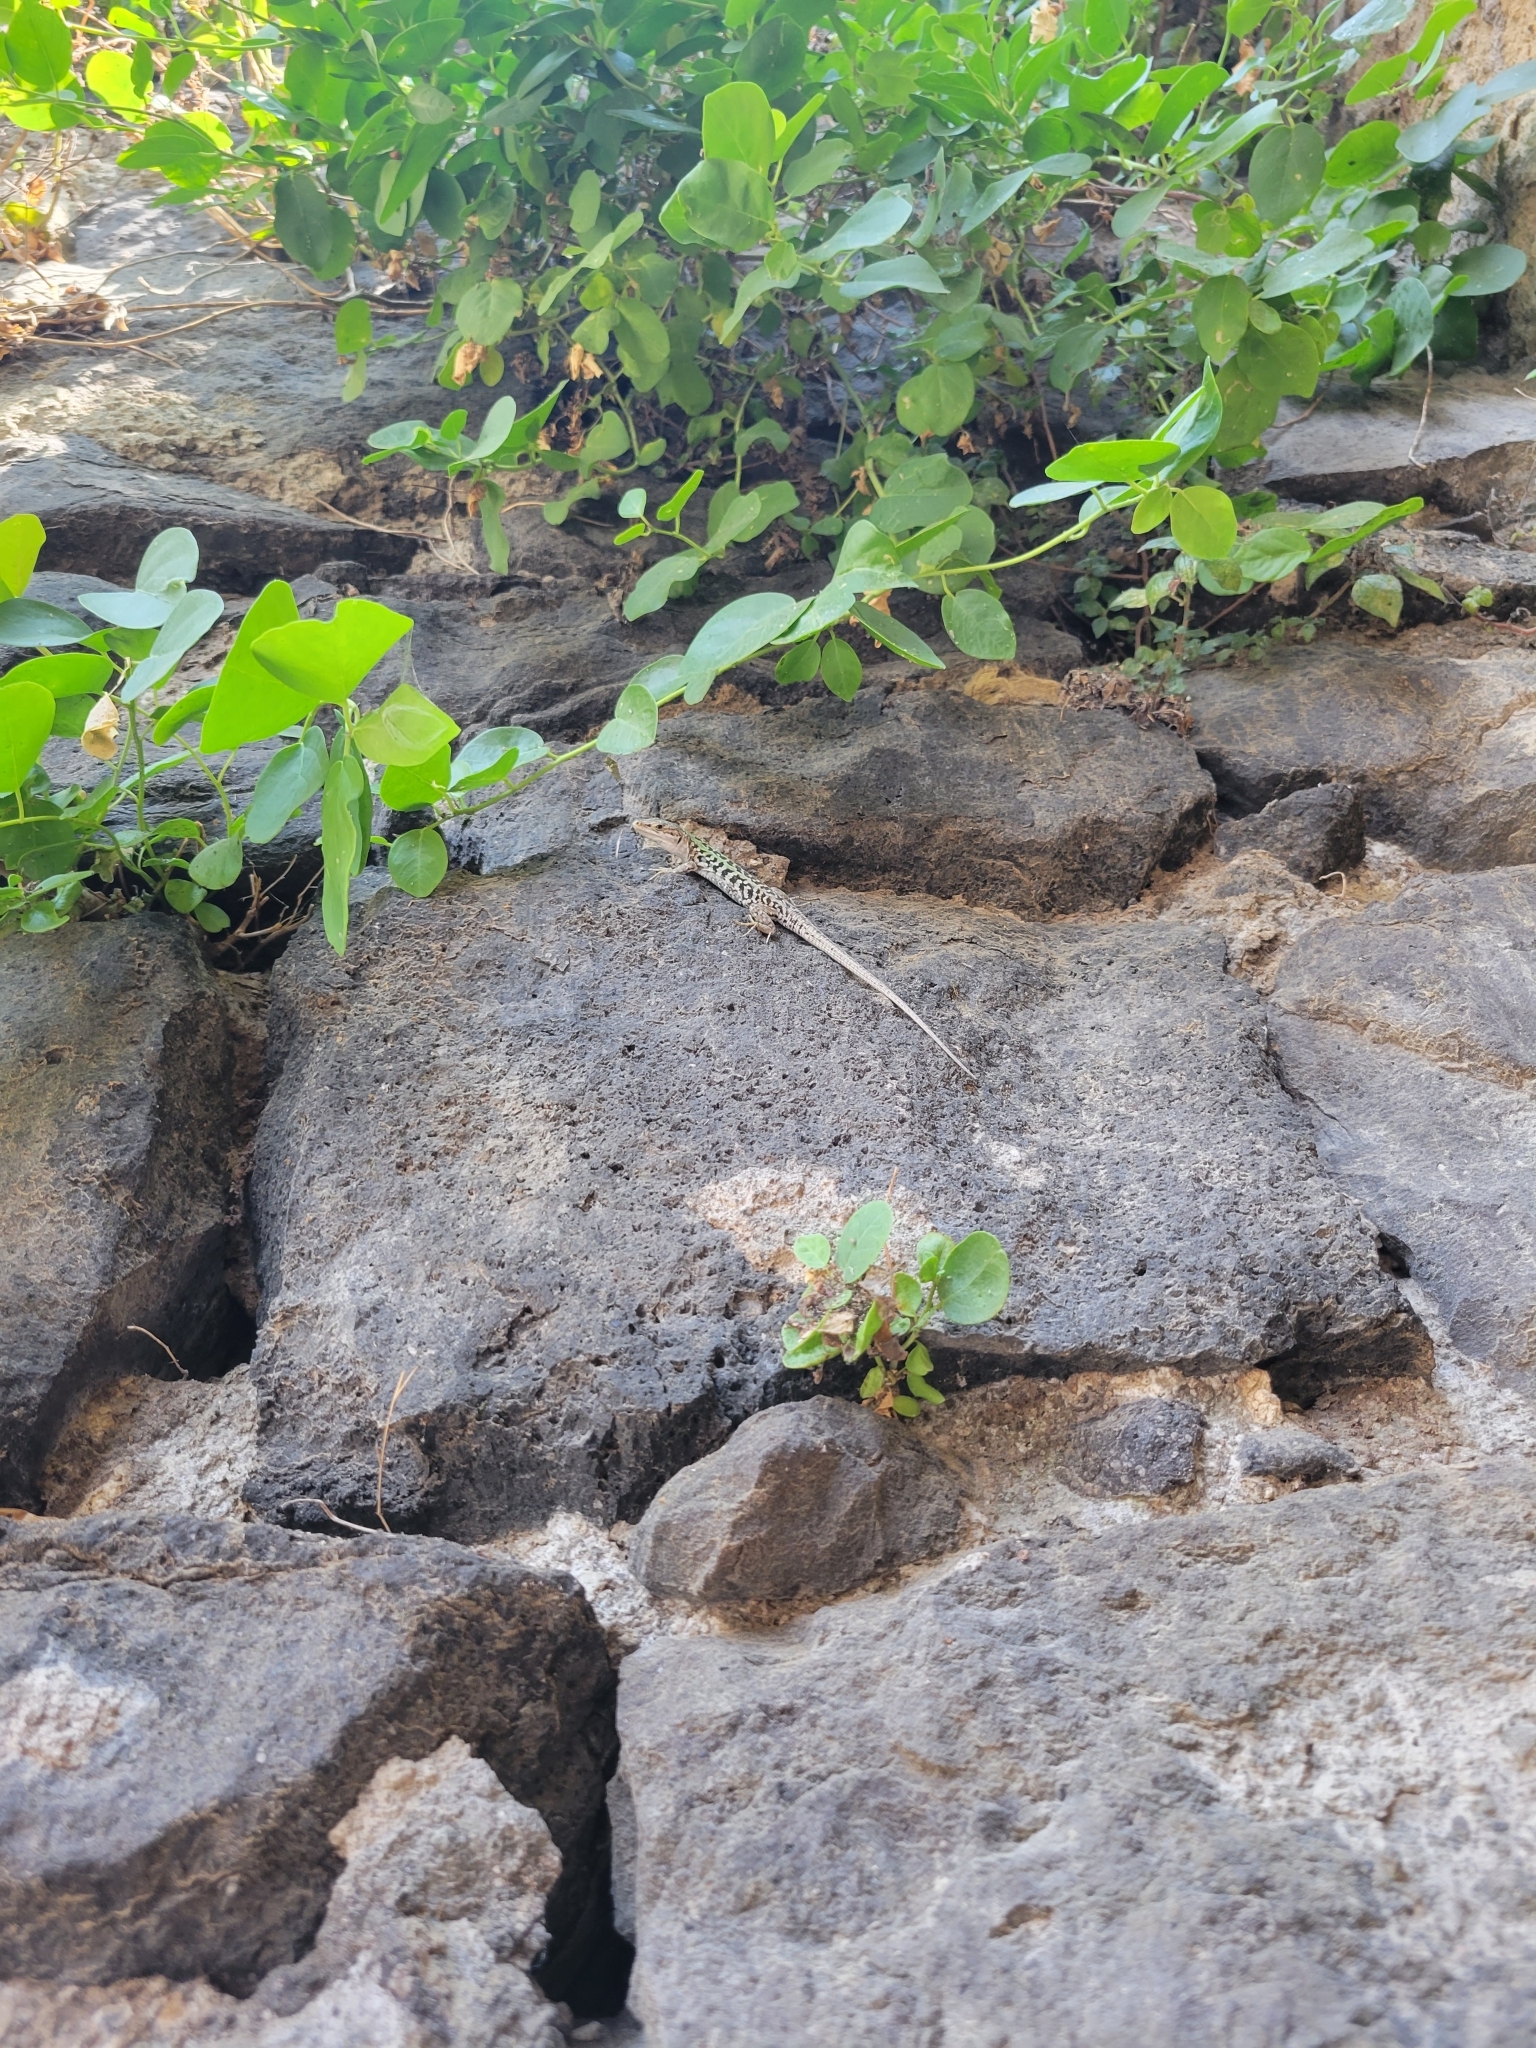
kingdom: Animalia
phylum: Chordata
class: Squamata
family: Lacertidae
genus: Podarcis
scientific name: Podarcis siculus
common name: Italian wall lizard
